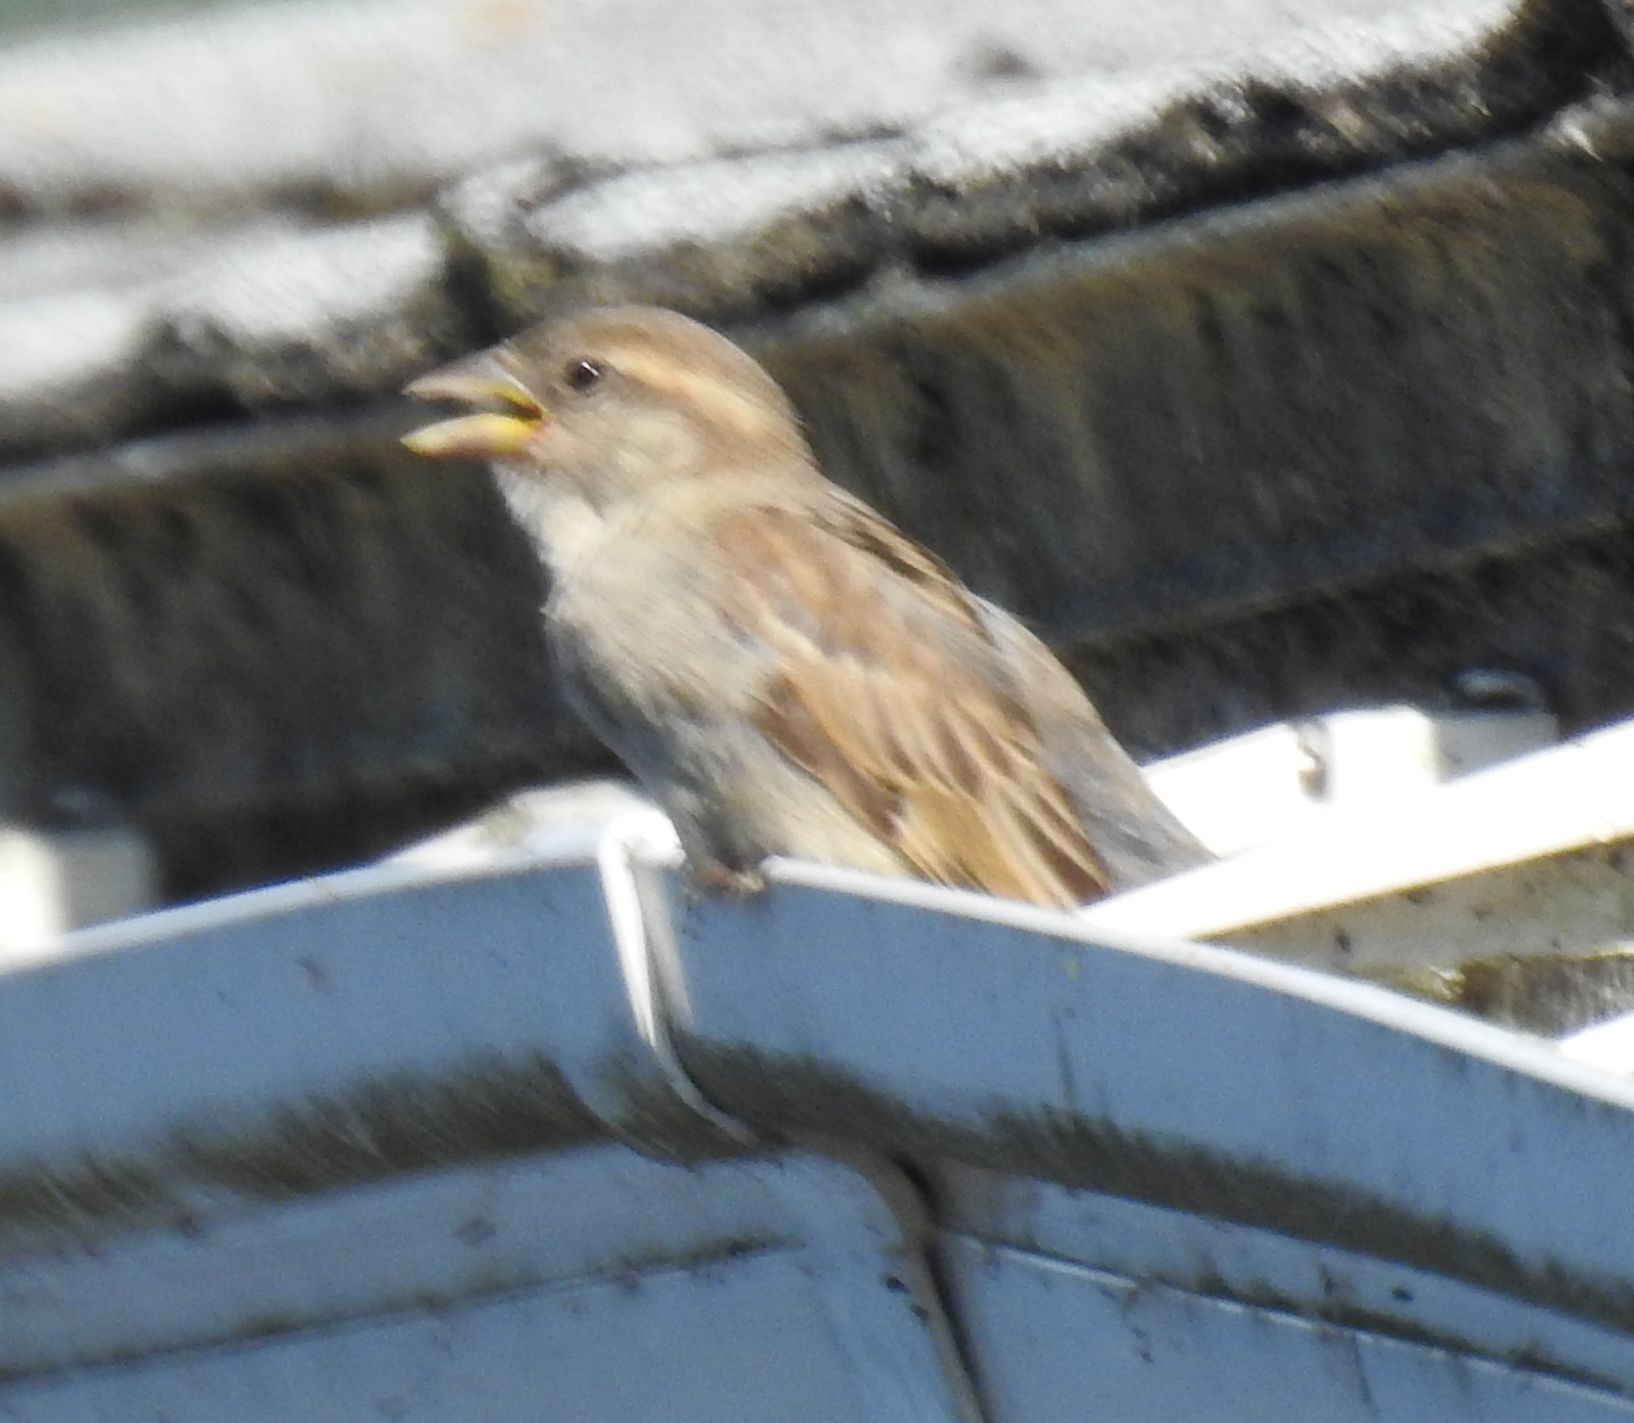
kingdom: Animalia
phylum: Chordata
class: Aves
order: Passeriformes
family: Passeridae
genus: Passer
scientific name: Passer domesticus
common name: House sparrow
